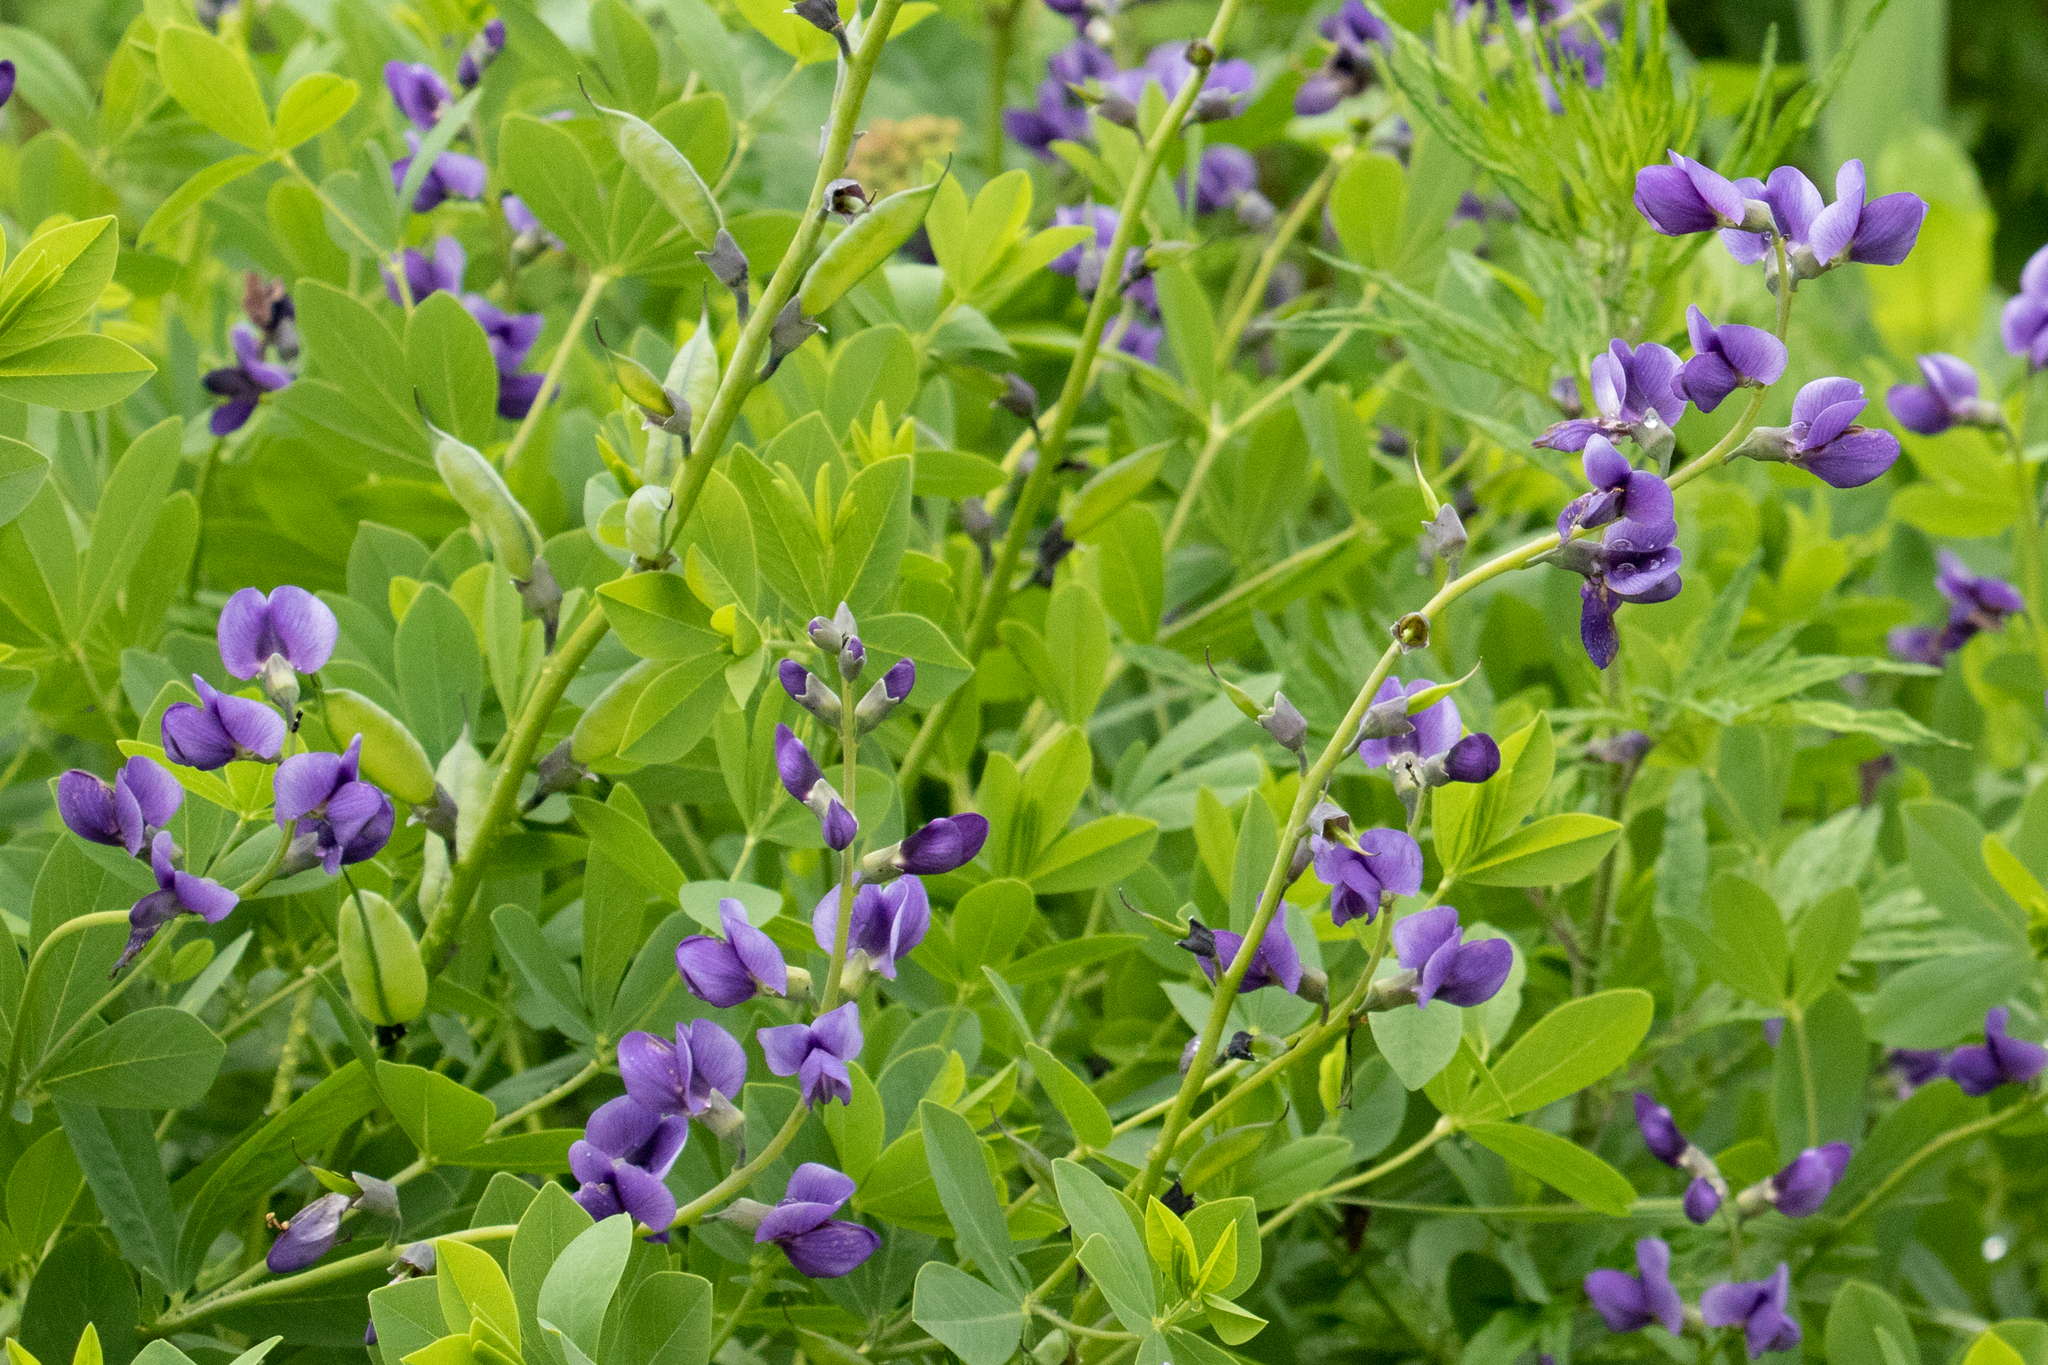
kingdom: Plantae
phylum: Tracheophyta
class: Magnoliopsida
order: Fabales
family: Fabaceae
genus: Baptisia
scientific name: Baptisia australis
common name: Blue false indigo
